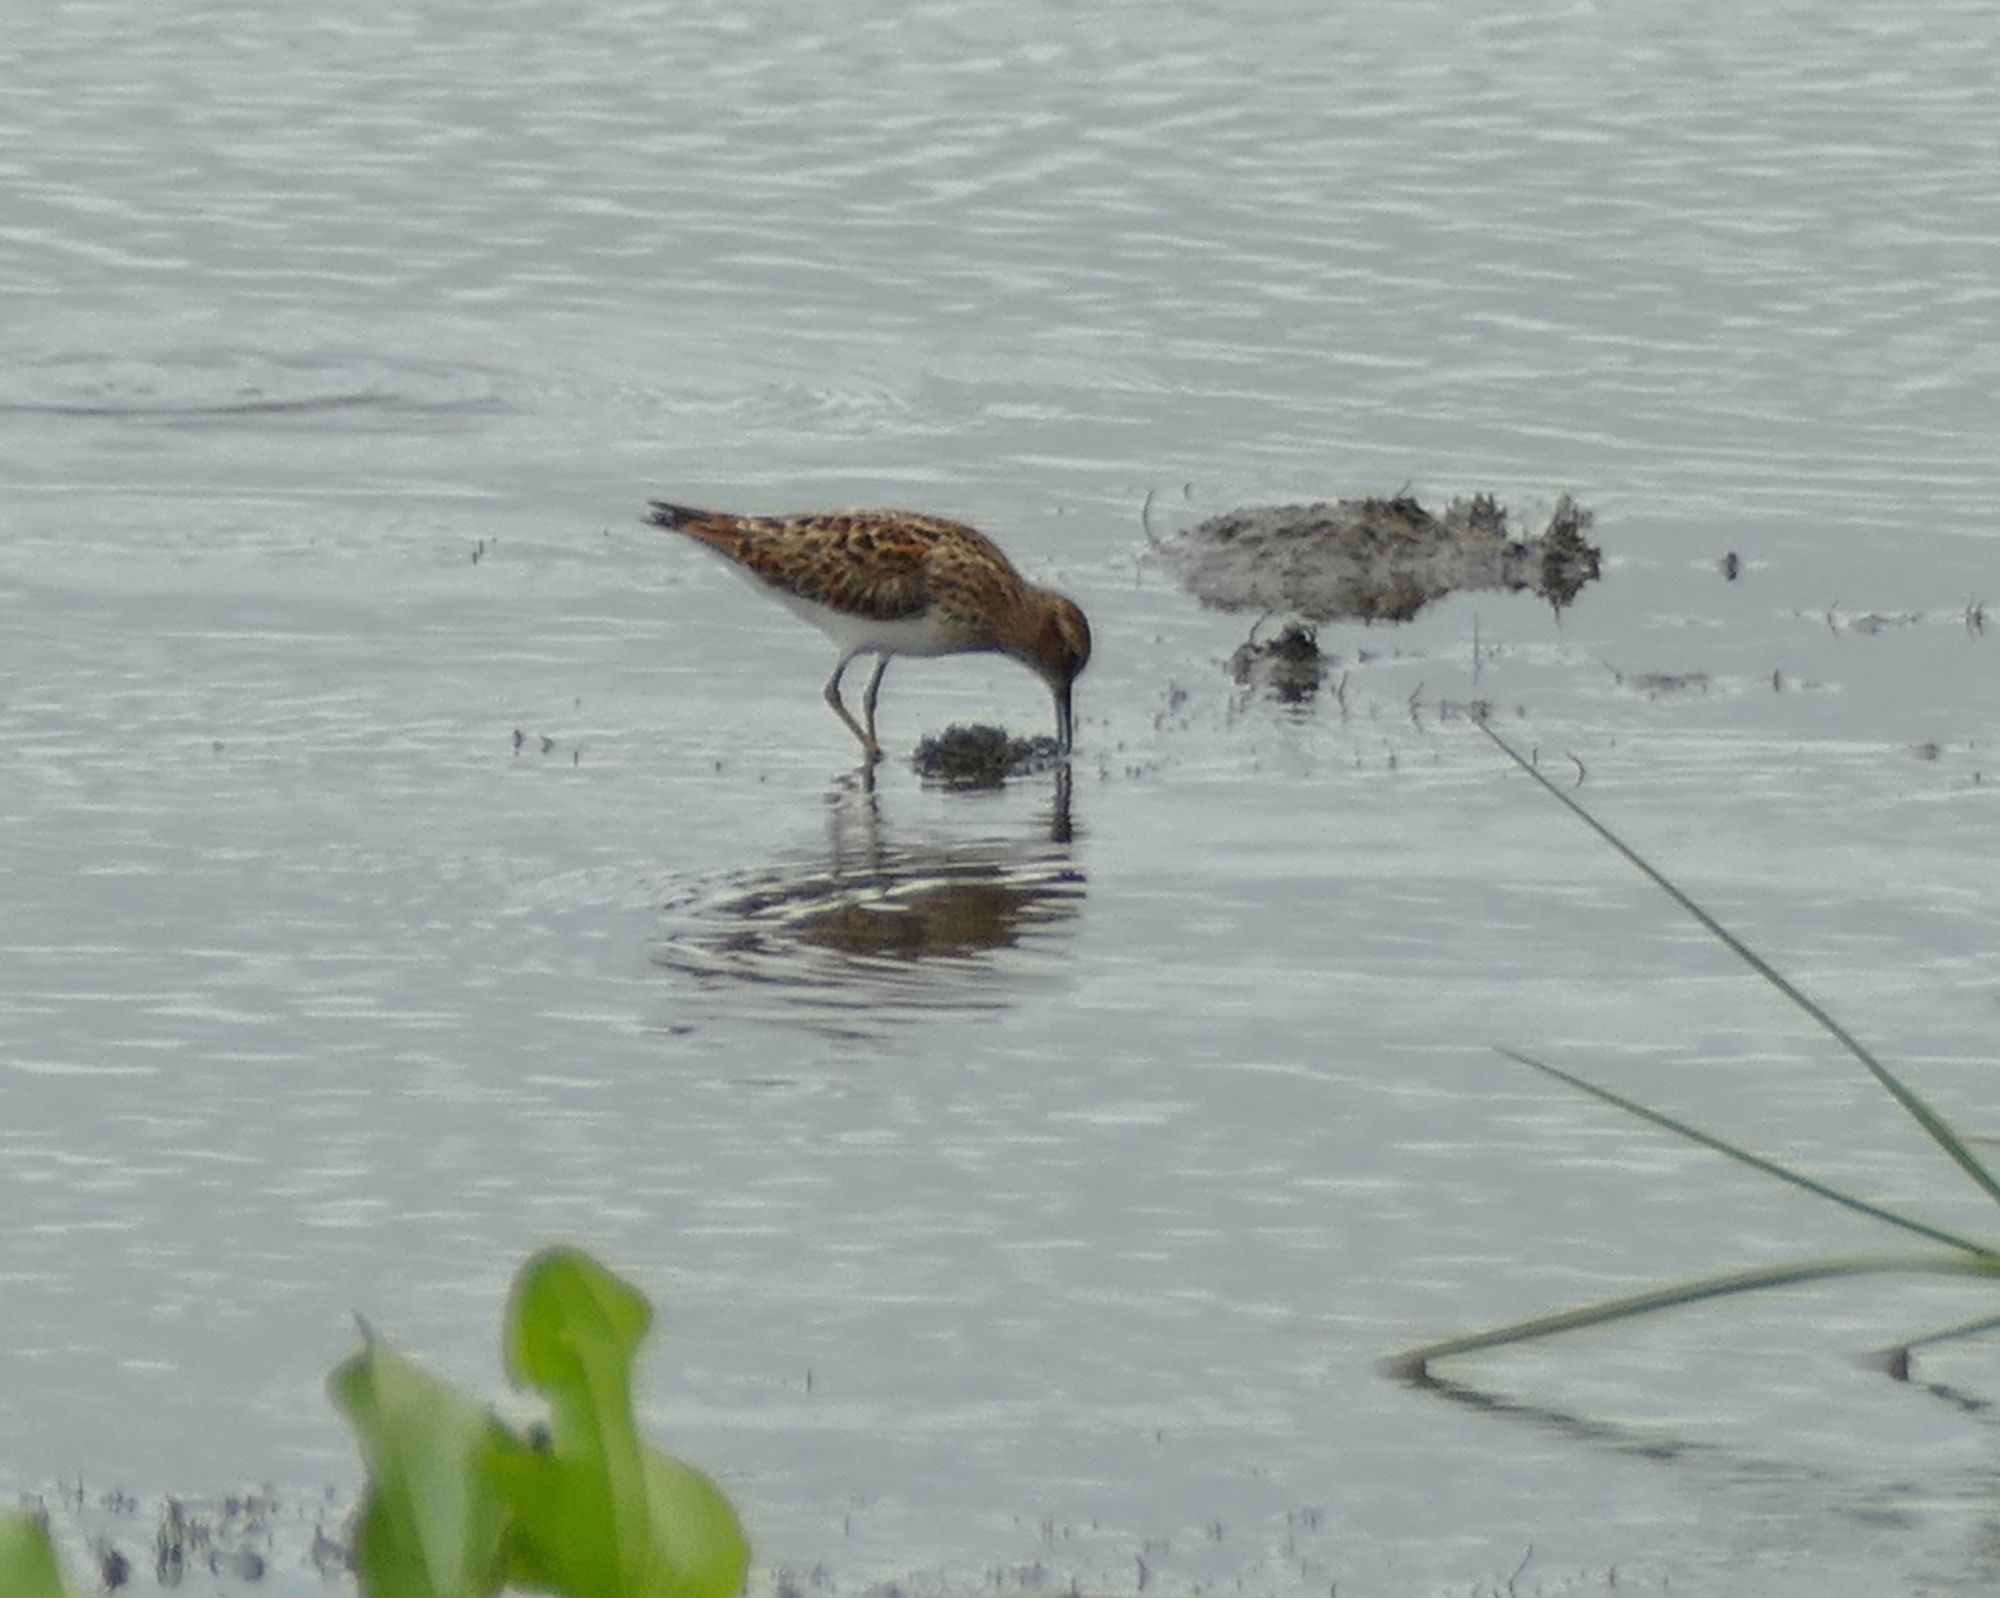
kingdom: Animalia
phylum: Chordata
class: Aves
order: Charadriiformes
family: Scolopacidae
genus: Calidris
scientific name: Calidris minutilla
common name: Least sandpiper
